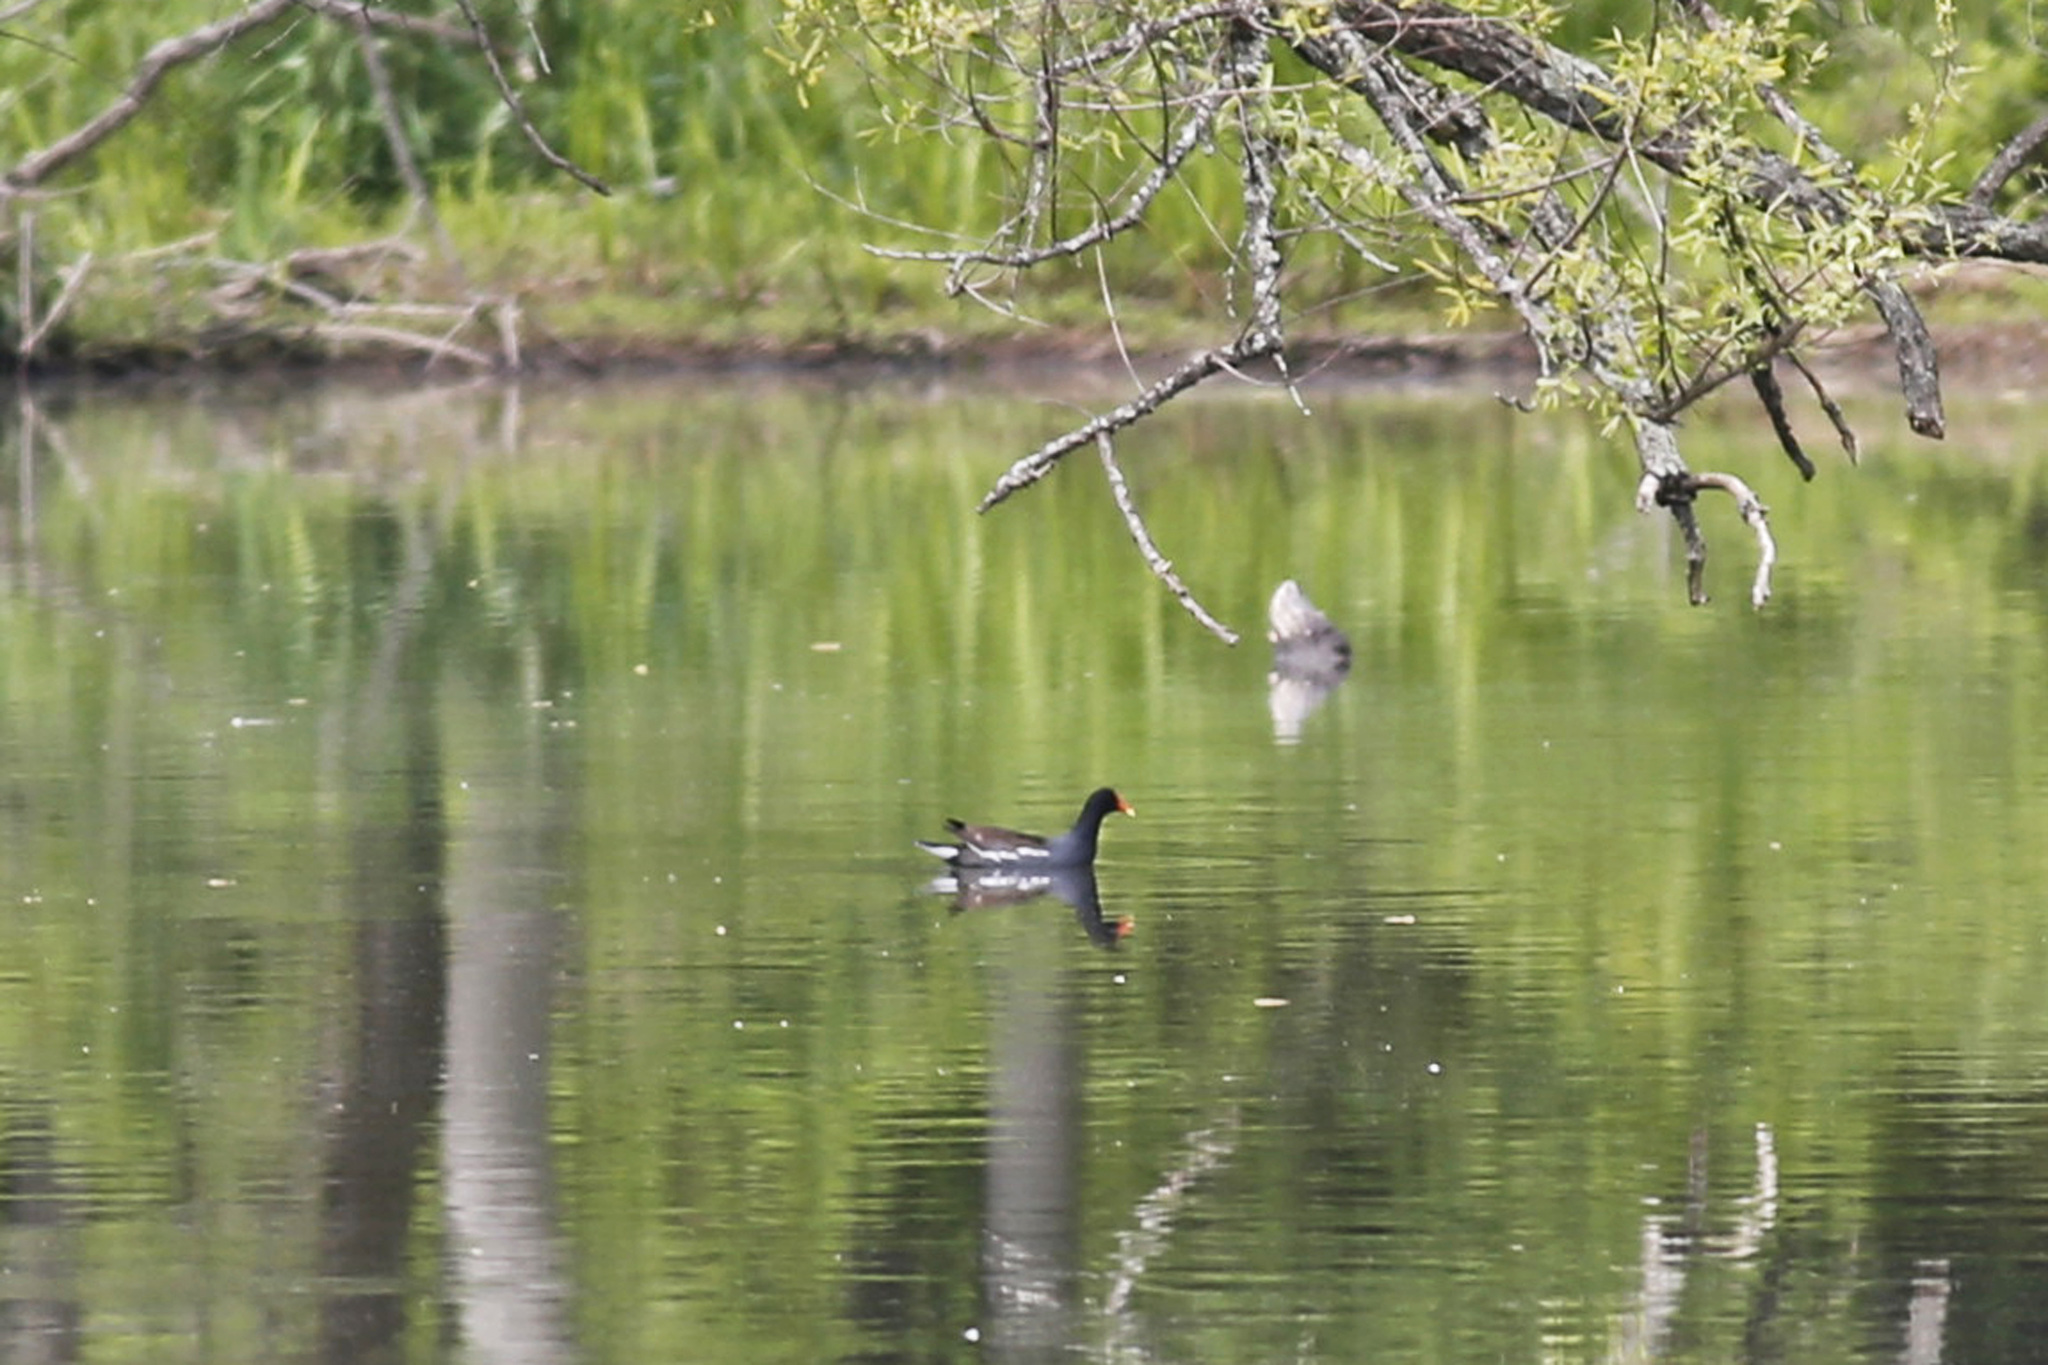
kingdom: Animalia
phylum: Chordata
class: Aves
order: Gruiformes
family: Rallidae
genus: Gallinula
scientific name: Gallinula chloropus
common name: Common moorhen
